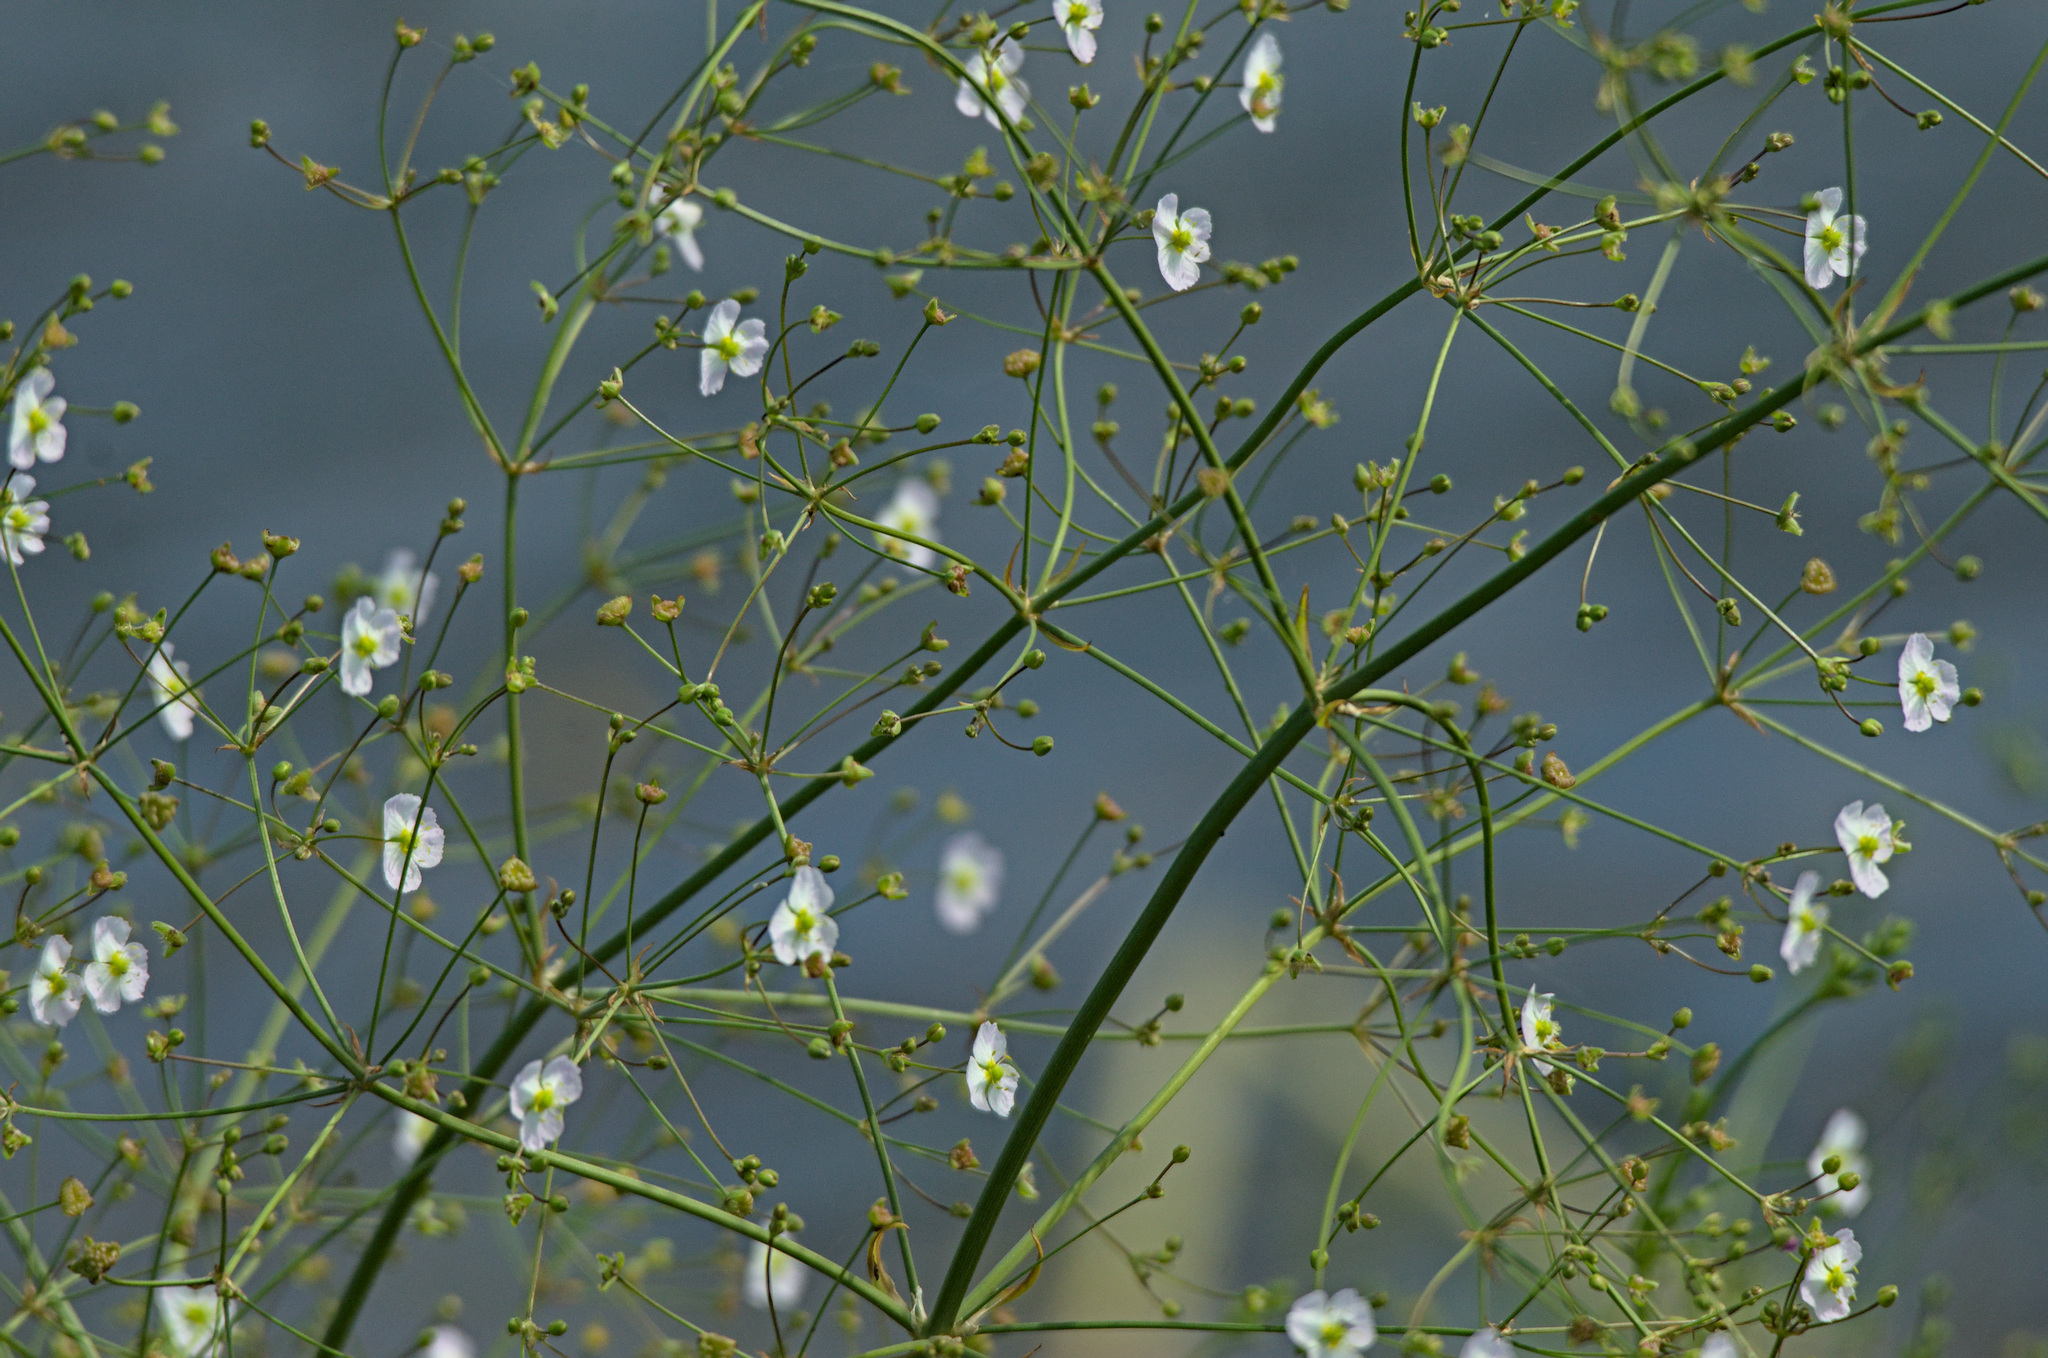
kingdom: Plantae
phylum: Tracheophyta
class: Liliopsida
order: Alismatales
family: Alismataceae
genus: Alisma
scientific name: Alisma plantago-aquatica
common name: Water-plantain
